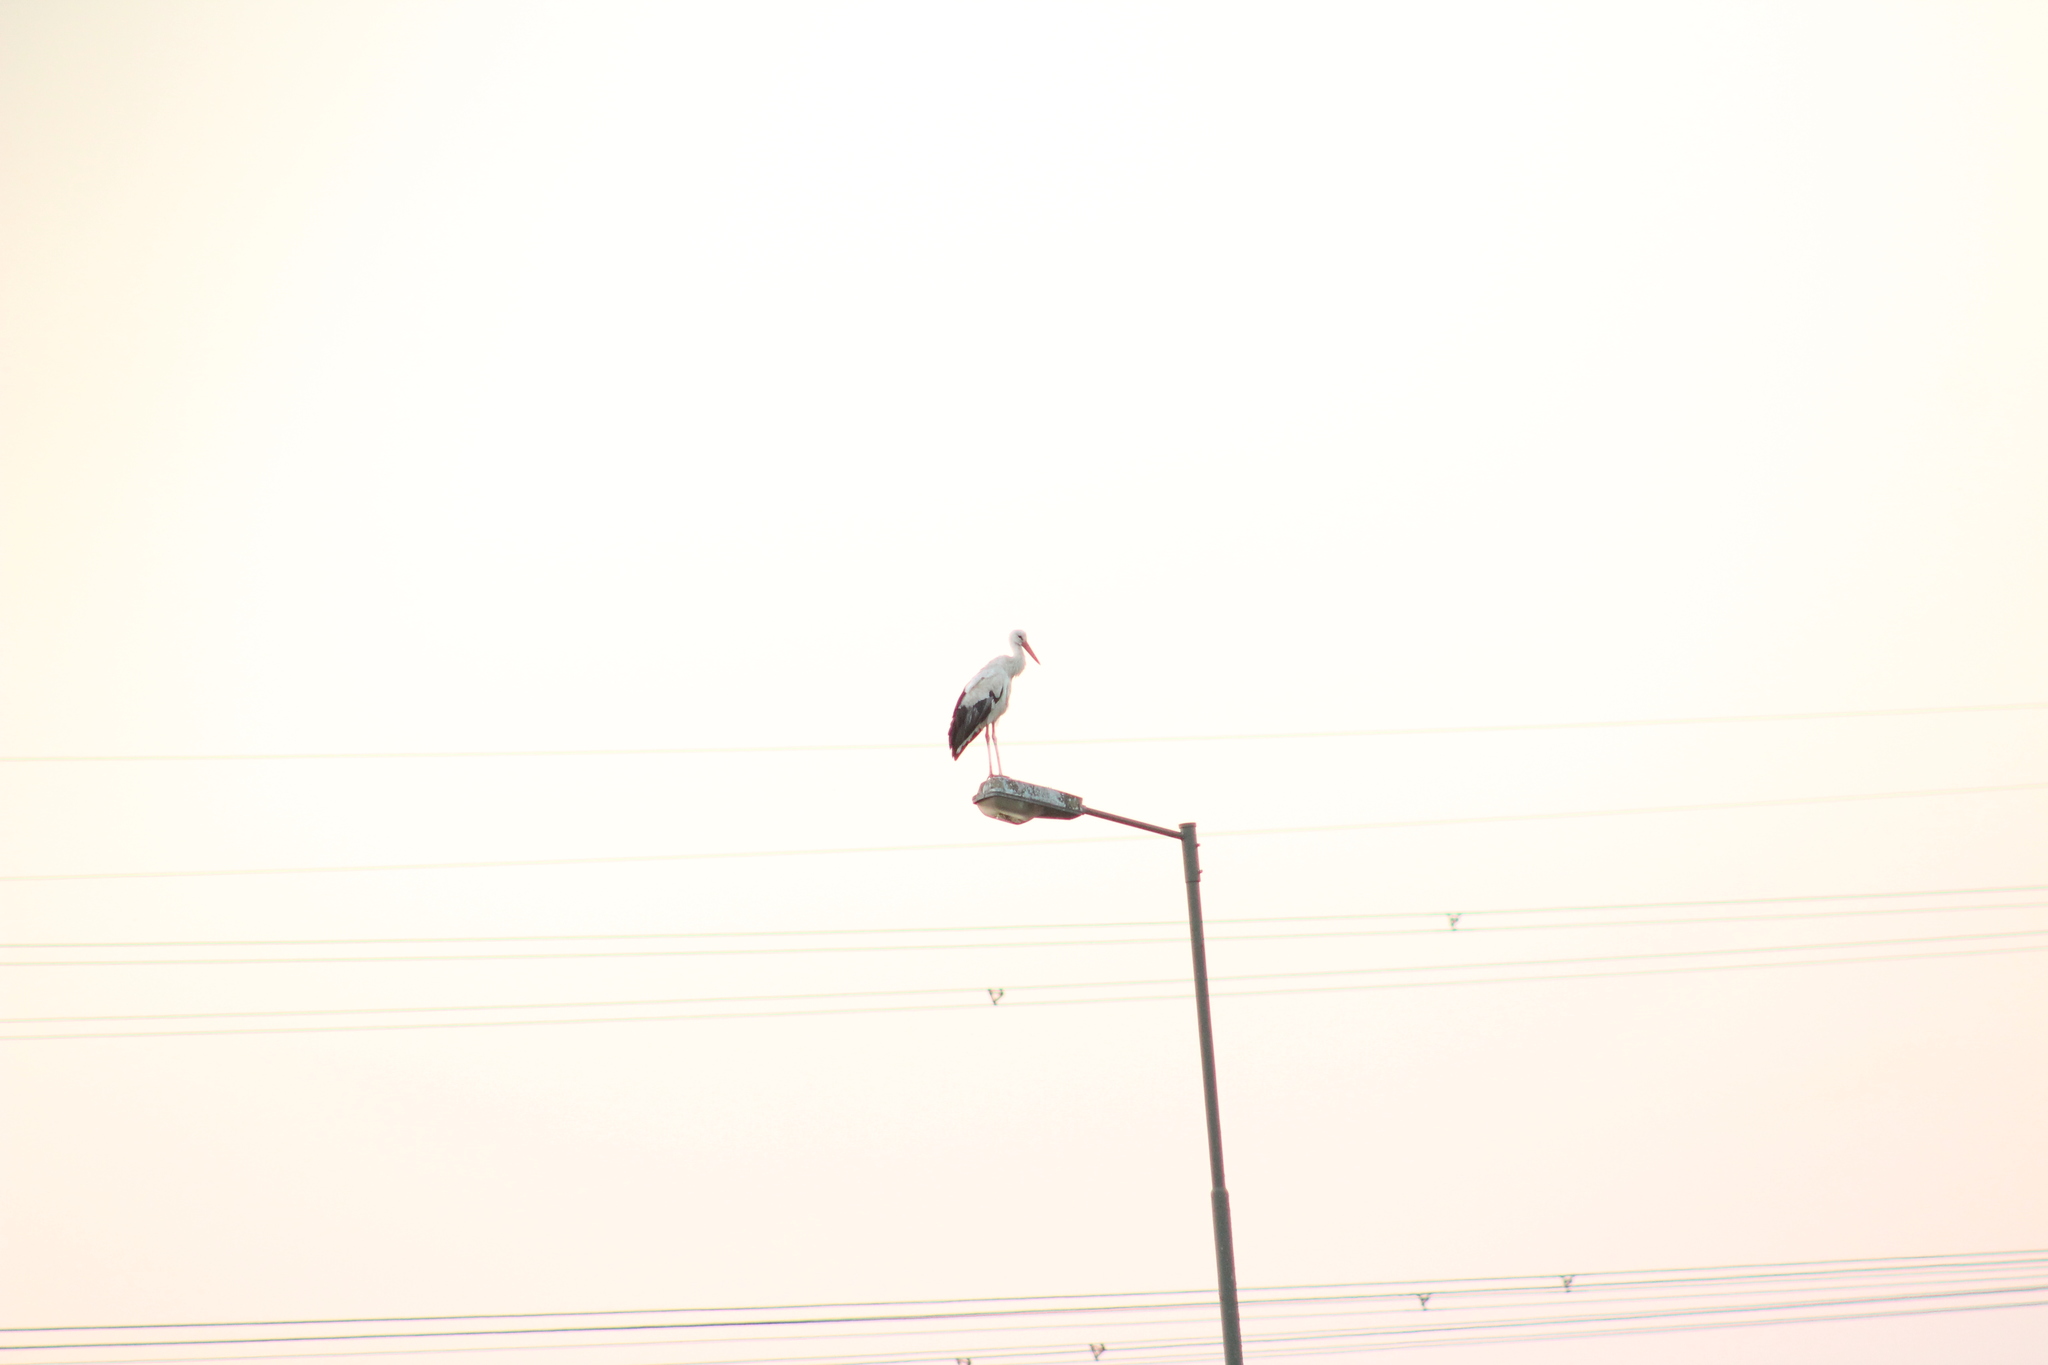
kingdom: Animalia
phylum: Chordata
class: Aves
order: Ciconiiformes
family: Ciconiidae
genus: Ciconia
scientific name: Ciconia ciconia
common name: White stork
